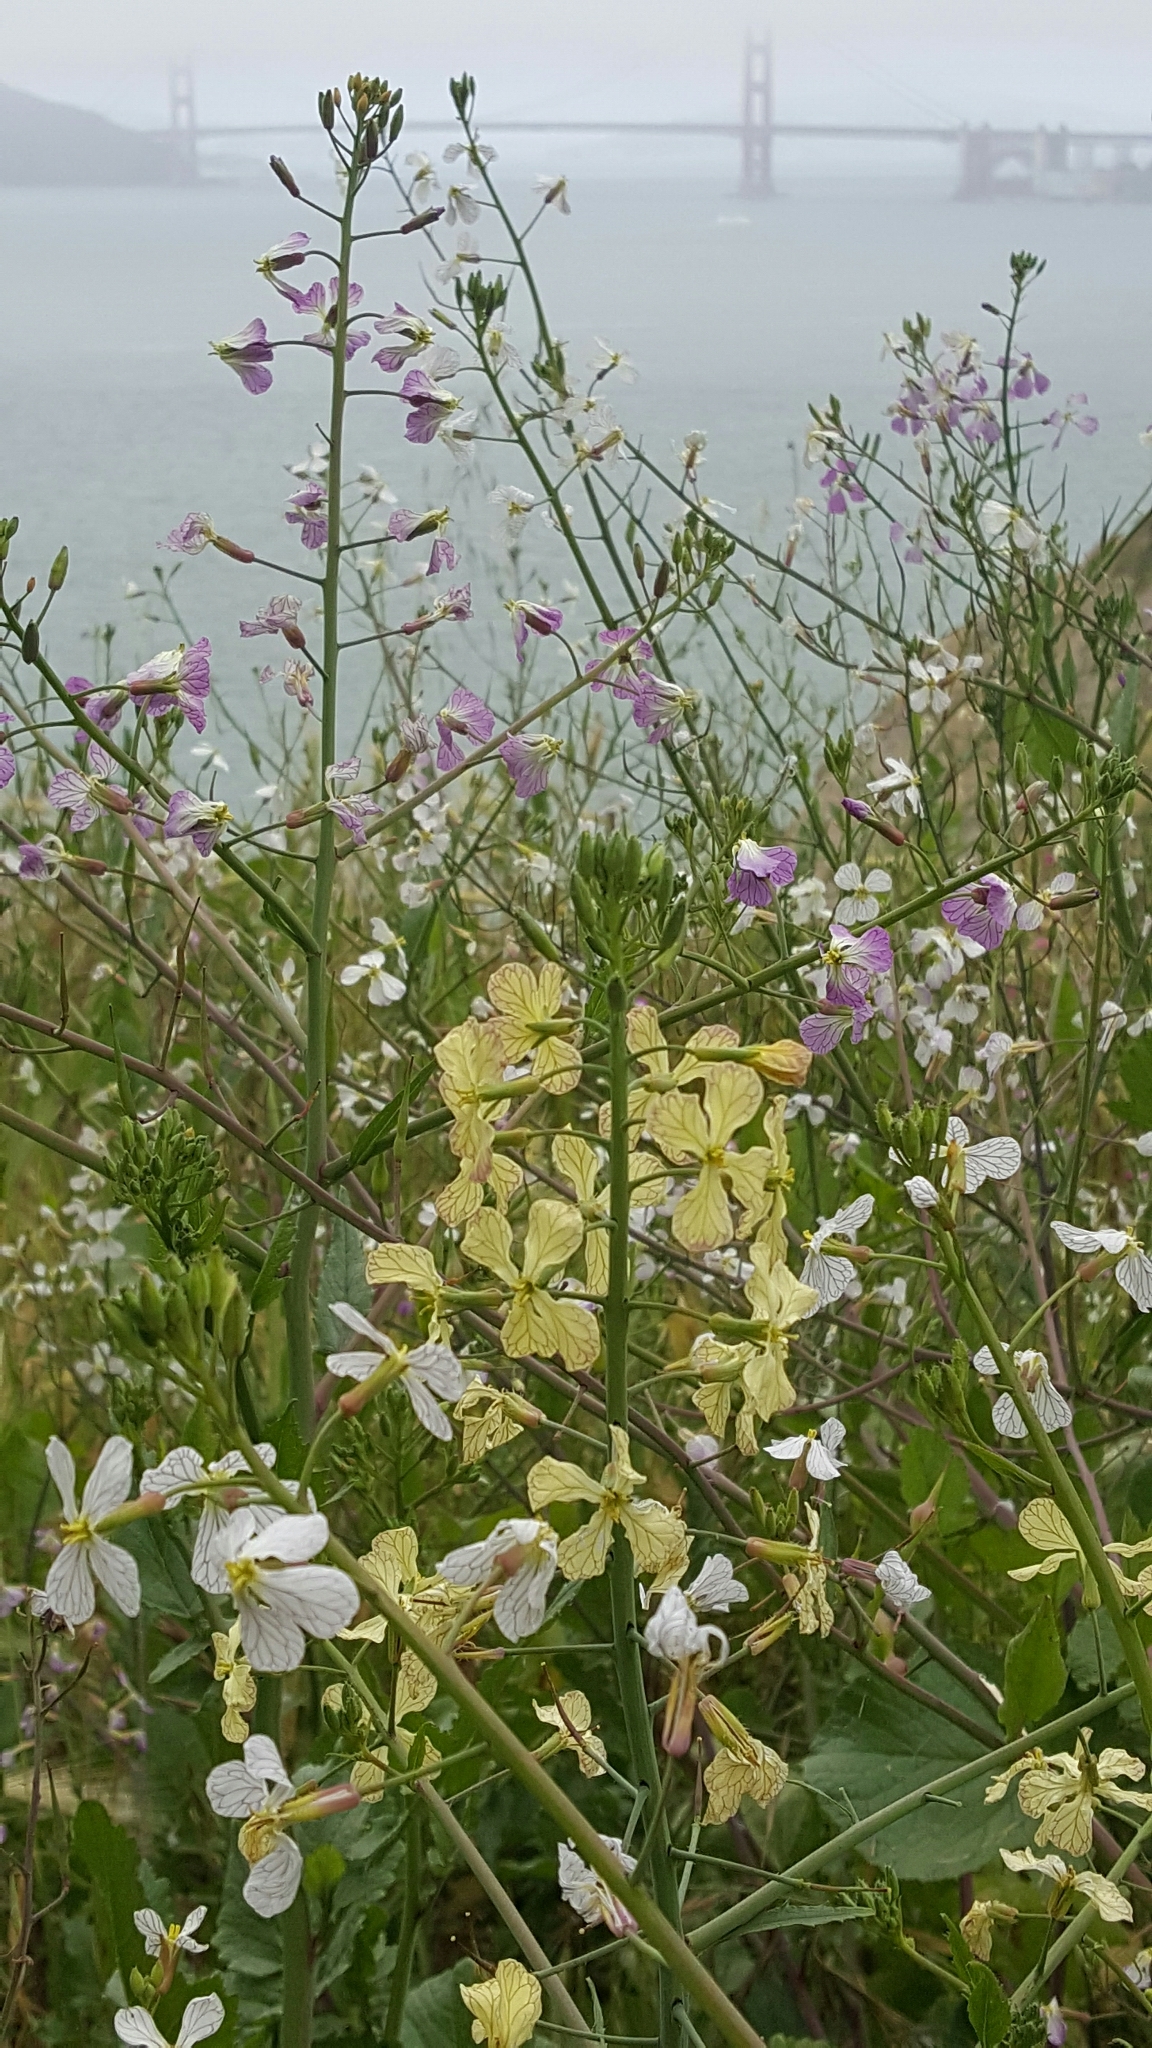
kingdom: Plantae
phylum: Tracheophyta
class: Magnoliopsida
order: Brassicales
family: Brassicaceae
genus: Raphanus
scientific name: Raphanus sativus
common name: Cultivated radish
